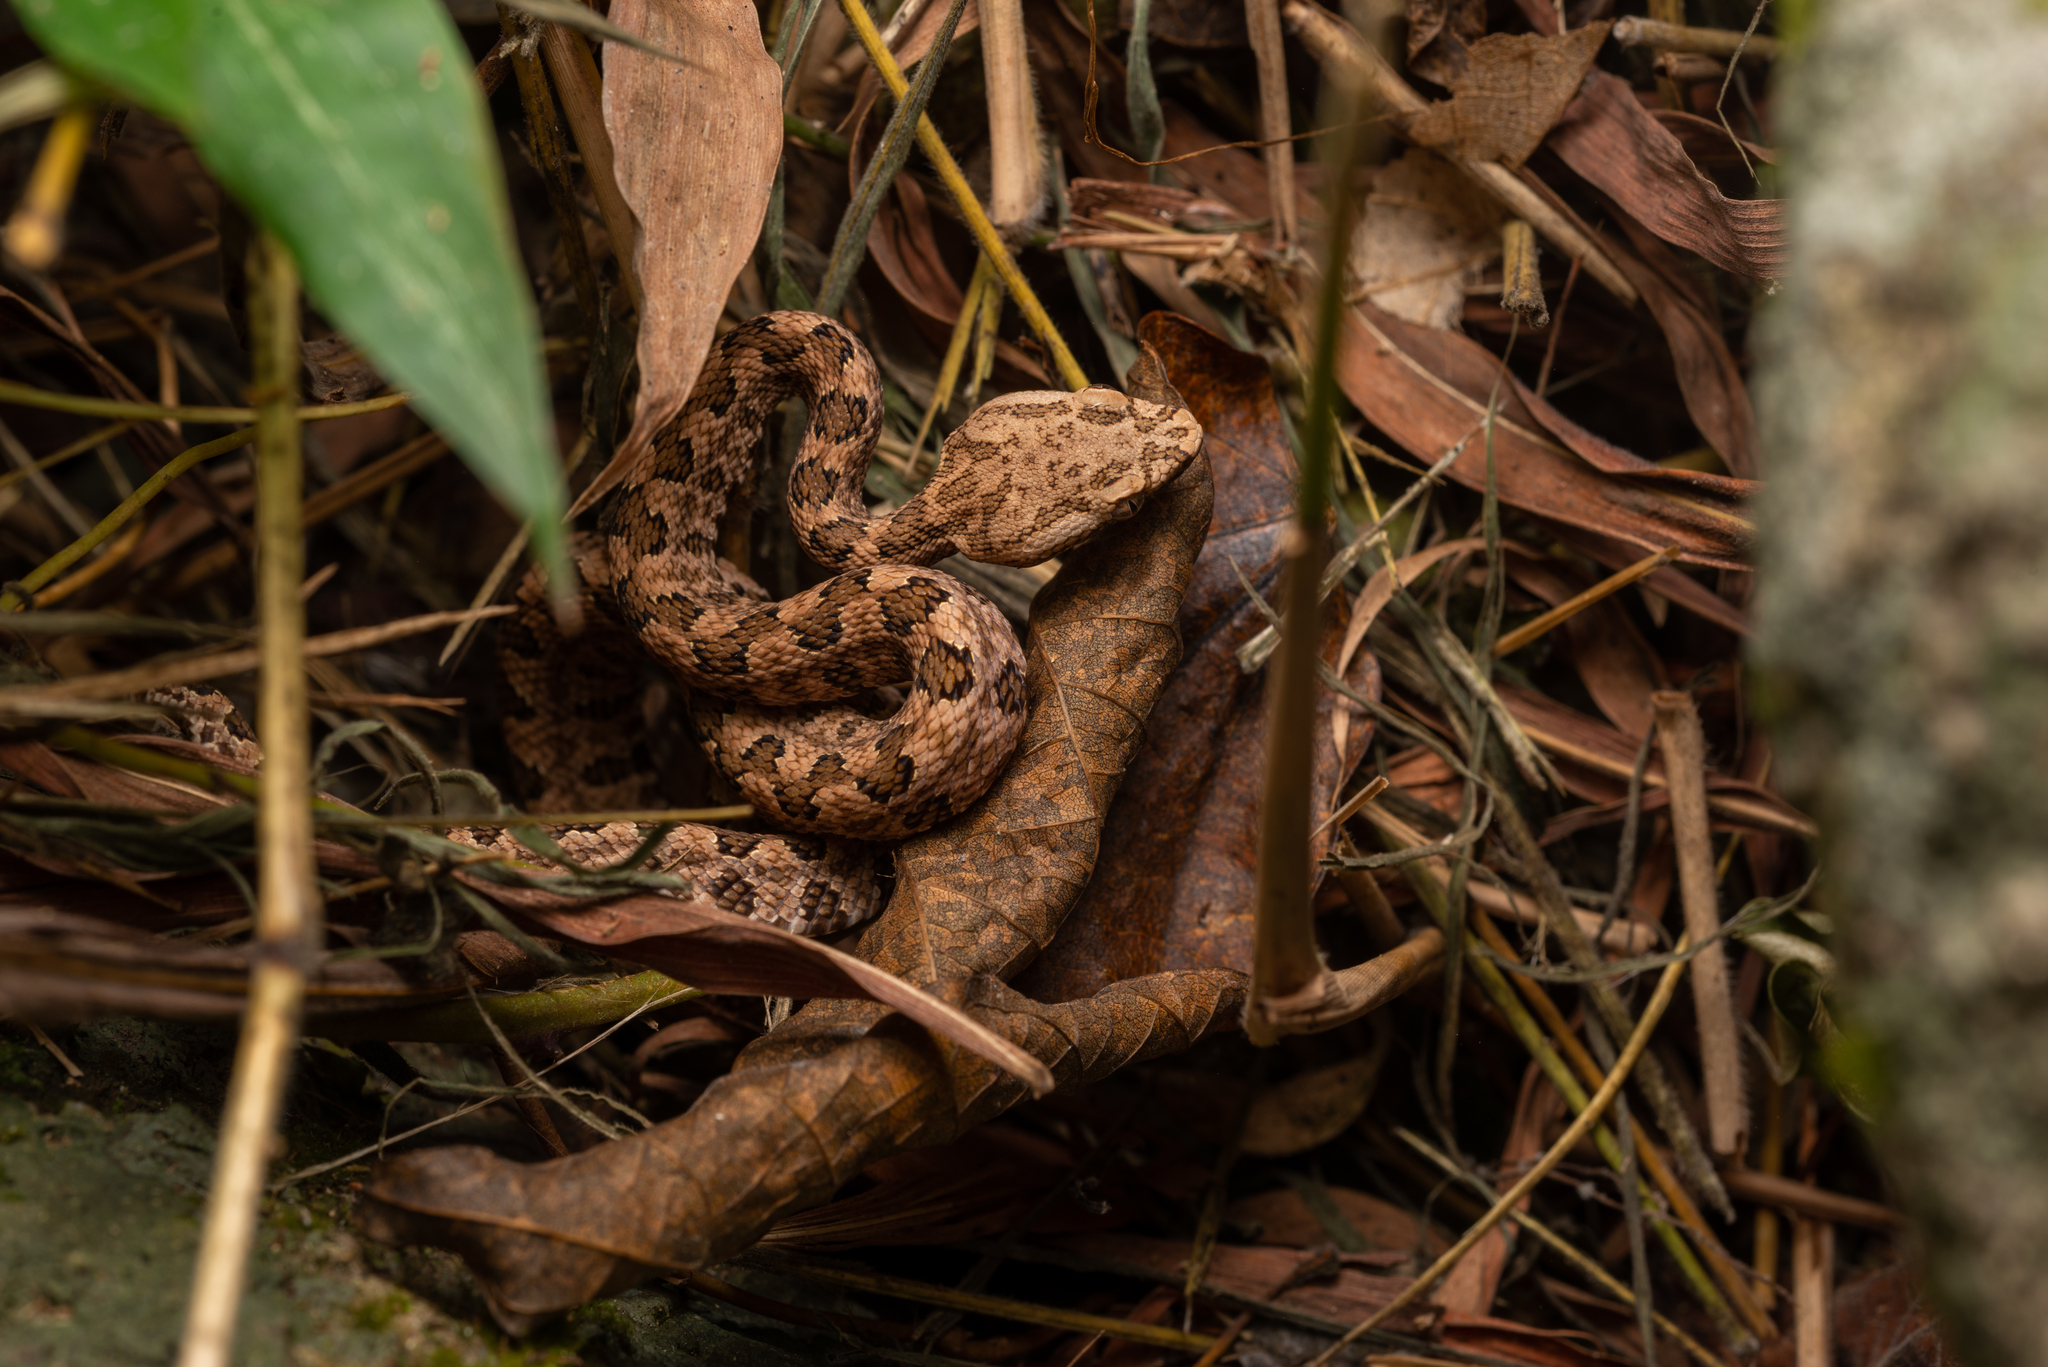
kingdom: Animalia
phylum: Chordata
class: Squamata
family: Viperidae
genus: Protobothrops
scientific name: Protobothrops mucrosquamatus
